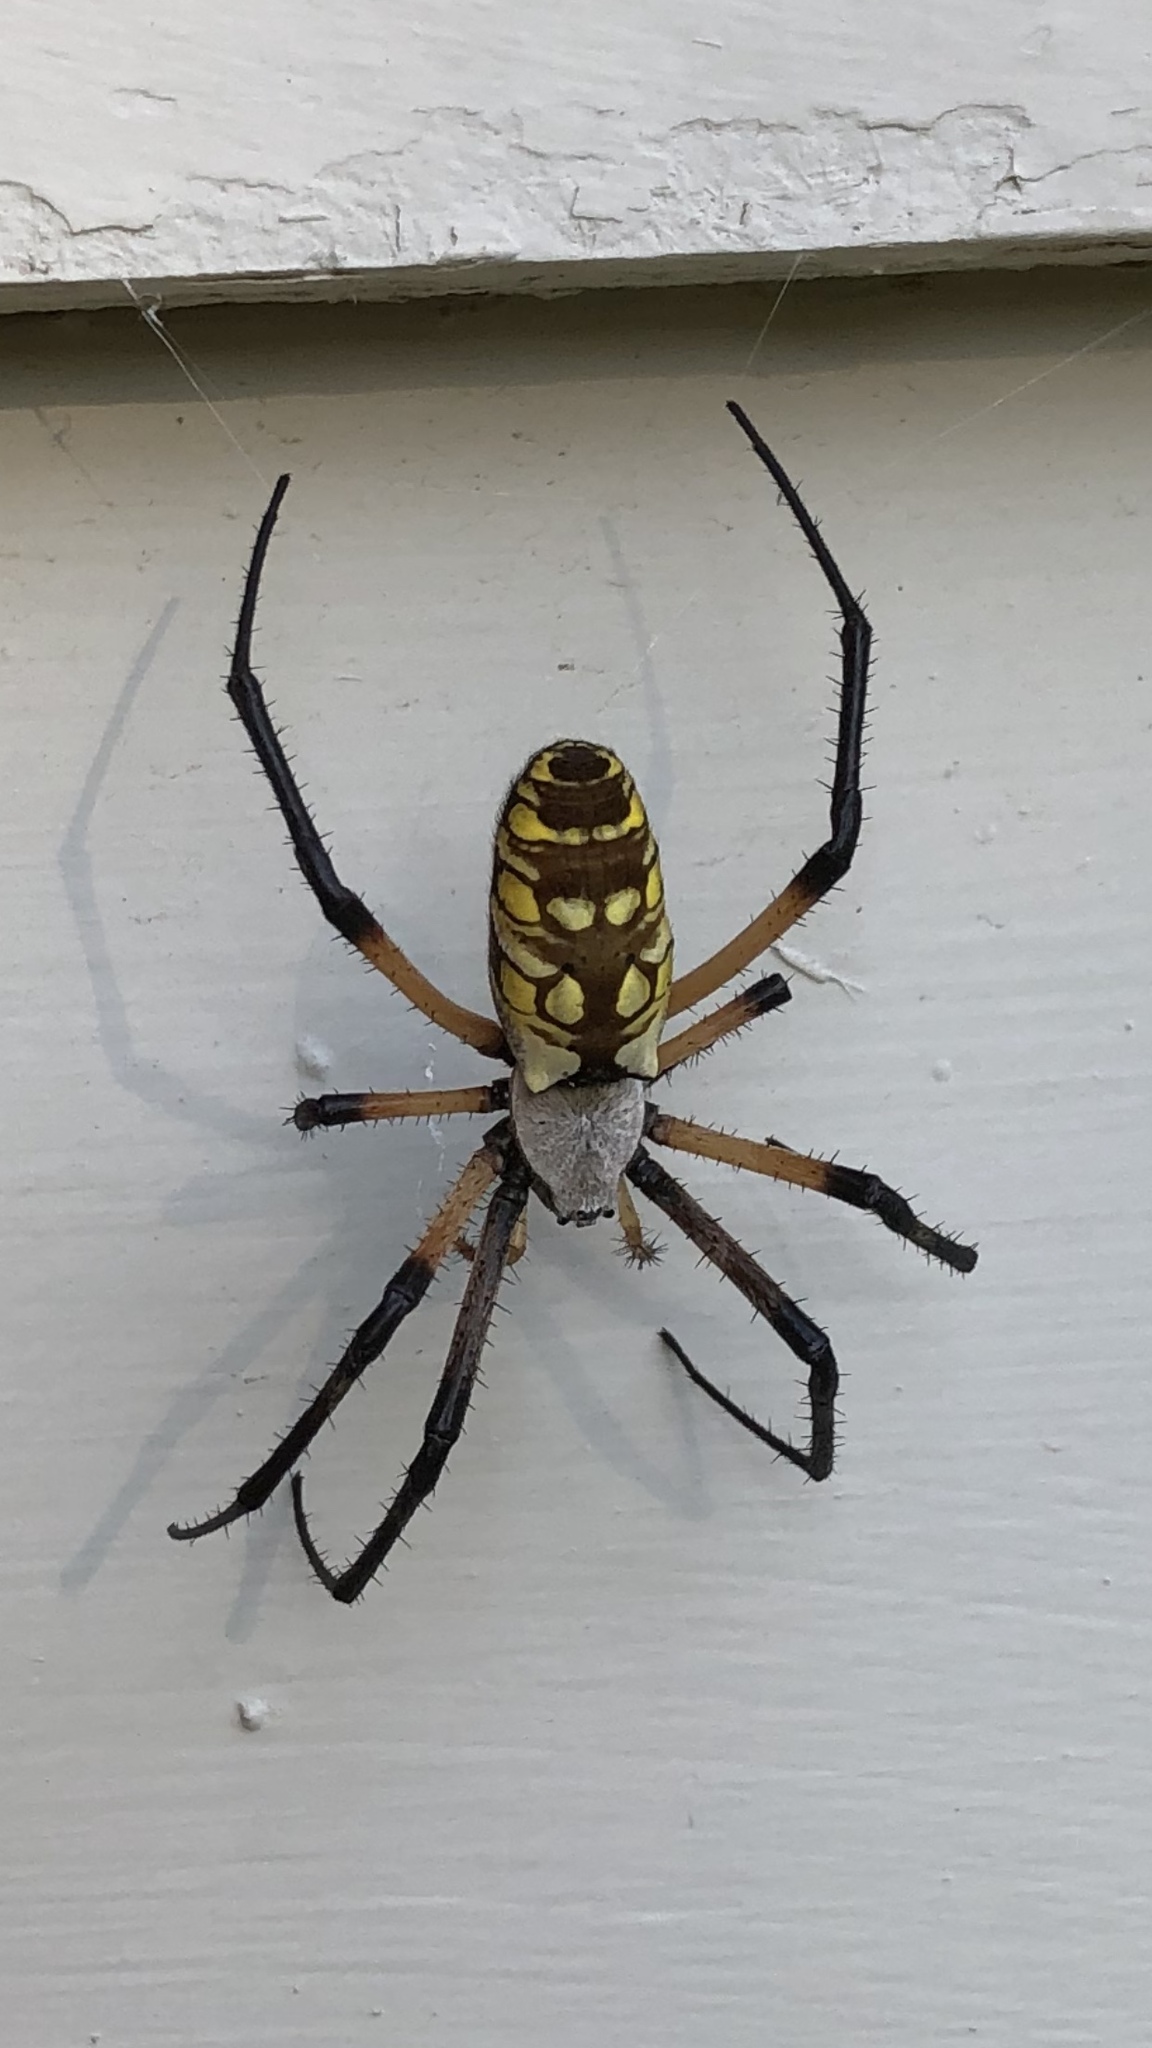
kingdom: Animalia
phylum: Arthropoda
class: Arachnida
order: Araneae
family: Araneidae
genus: Argiope
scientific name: Argiope aurantia
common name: Orb weavers
